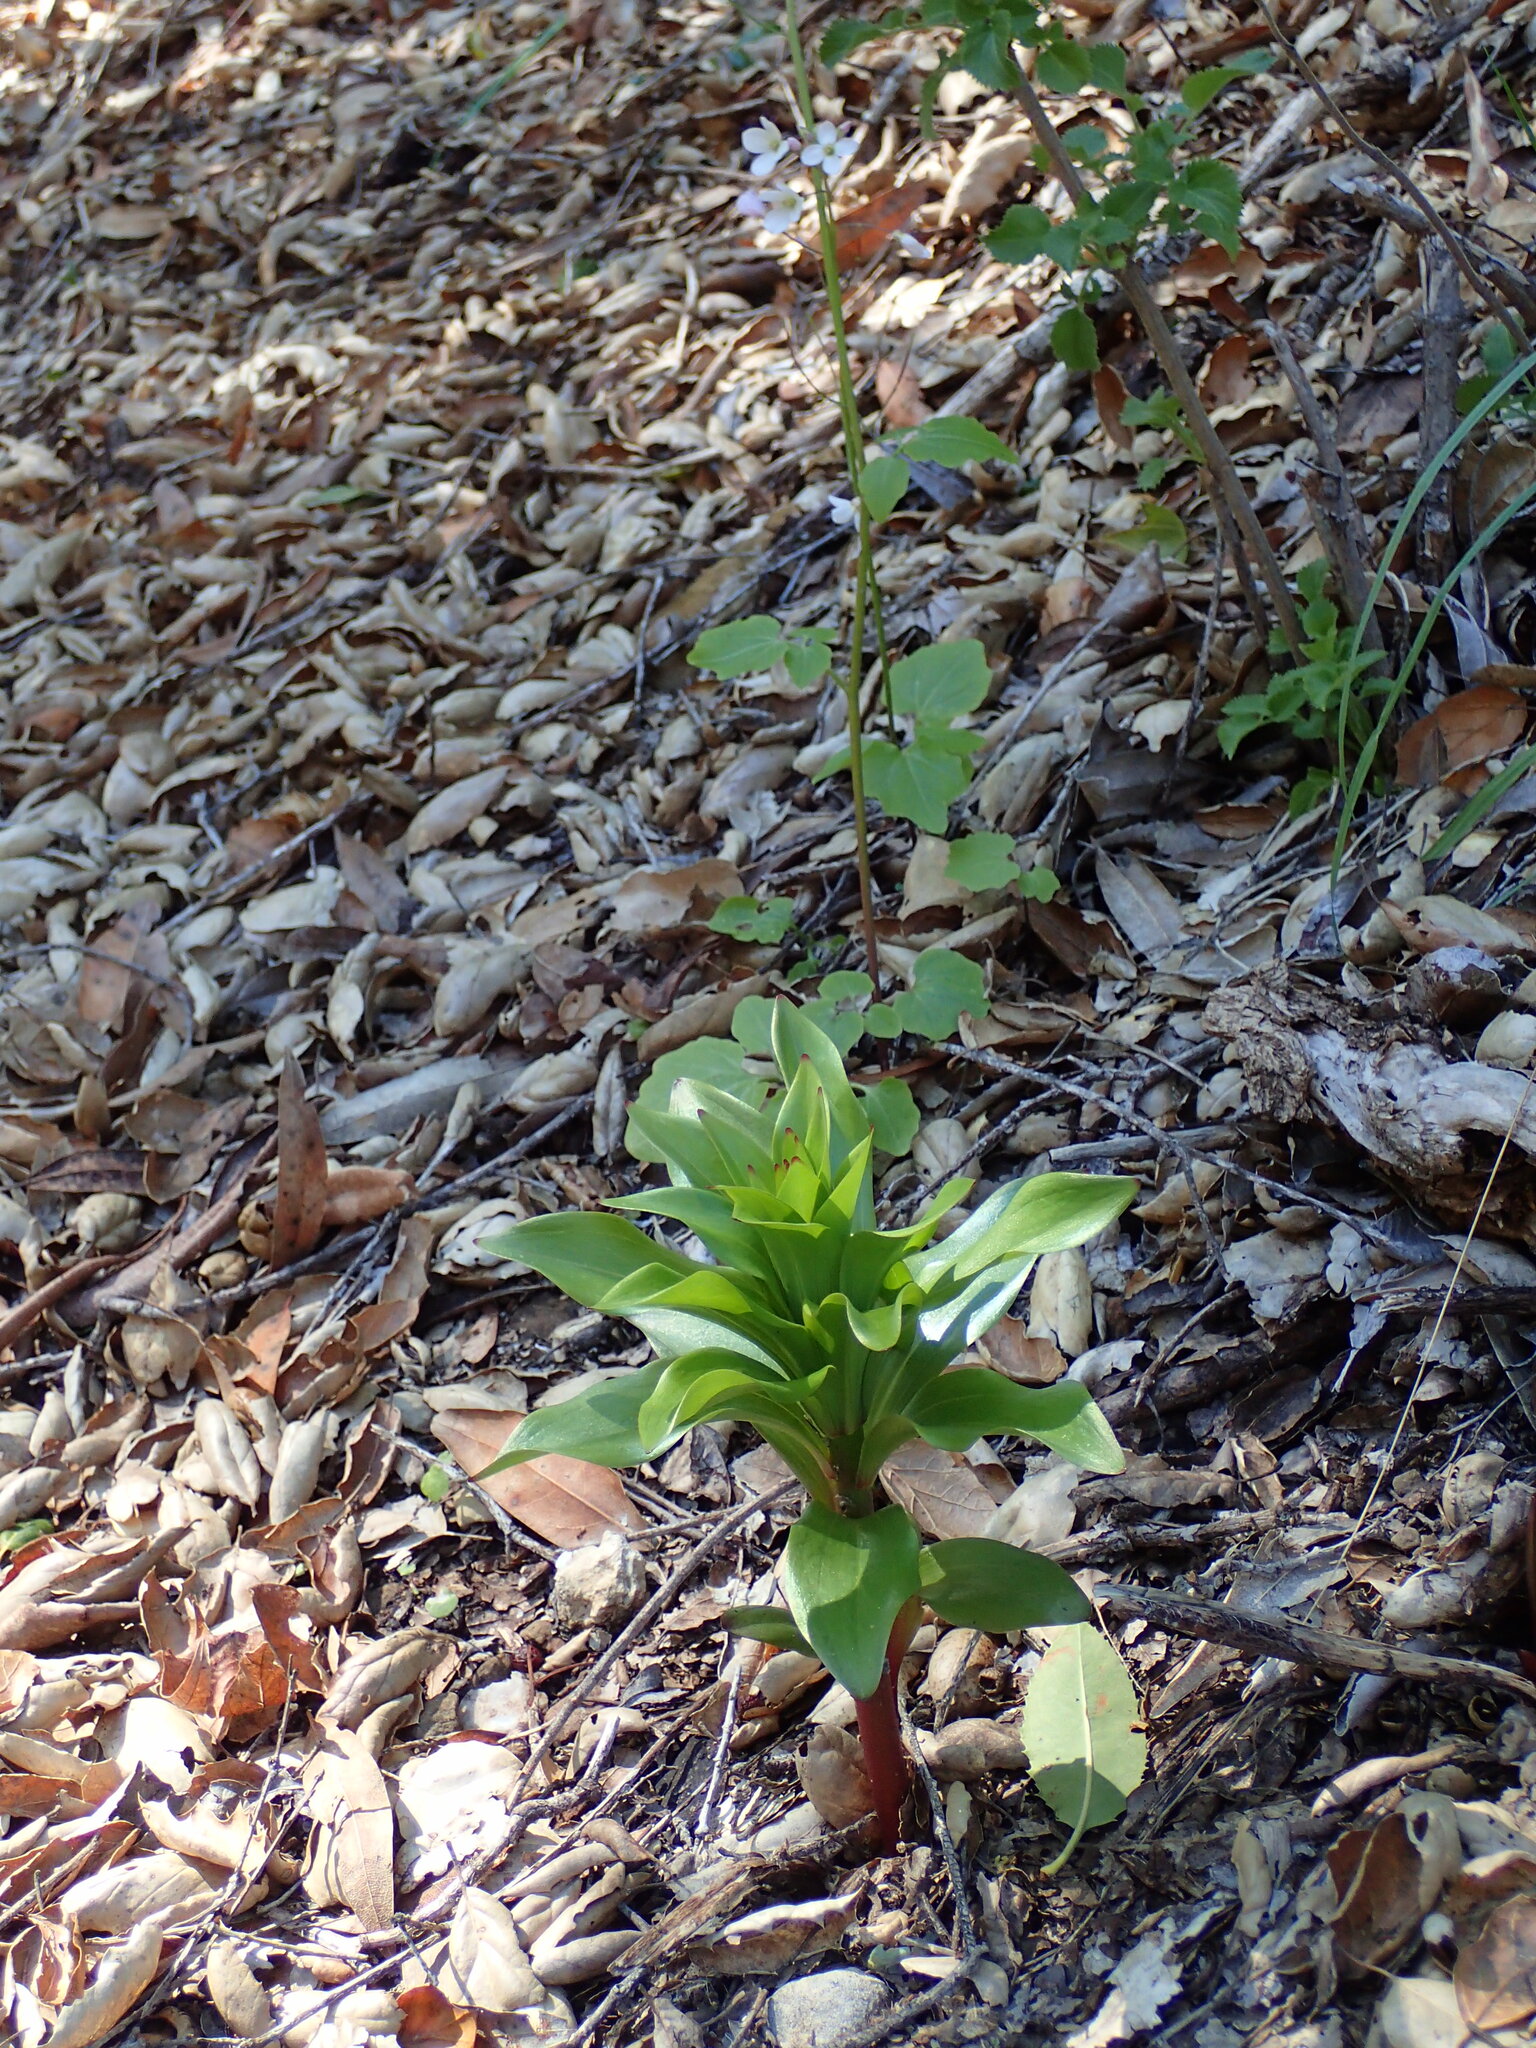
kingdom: Plantae
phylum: Tracheophyta
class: Liliopsida
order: Liliales
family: Liliaceae
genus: Lilium
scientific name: Lilium humboldtii
